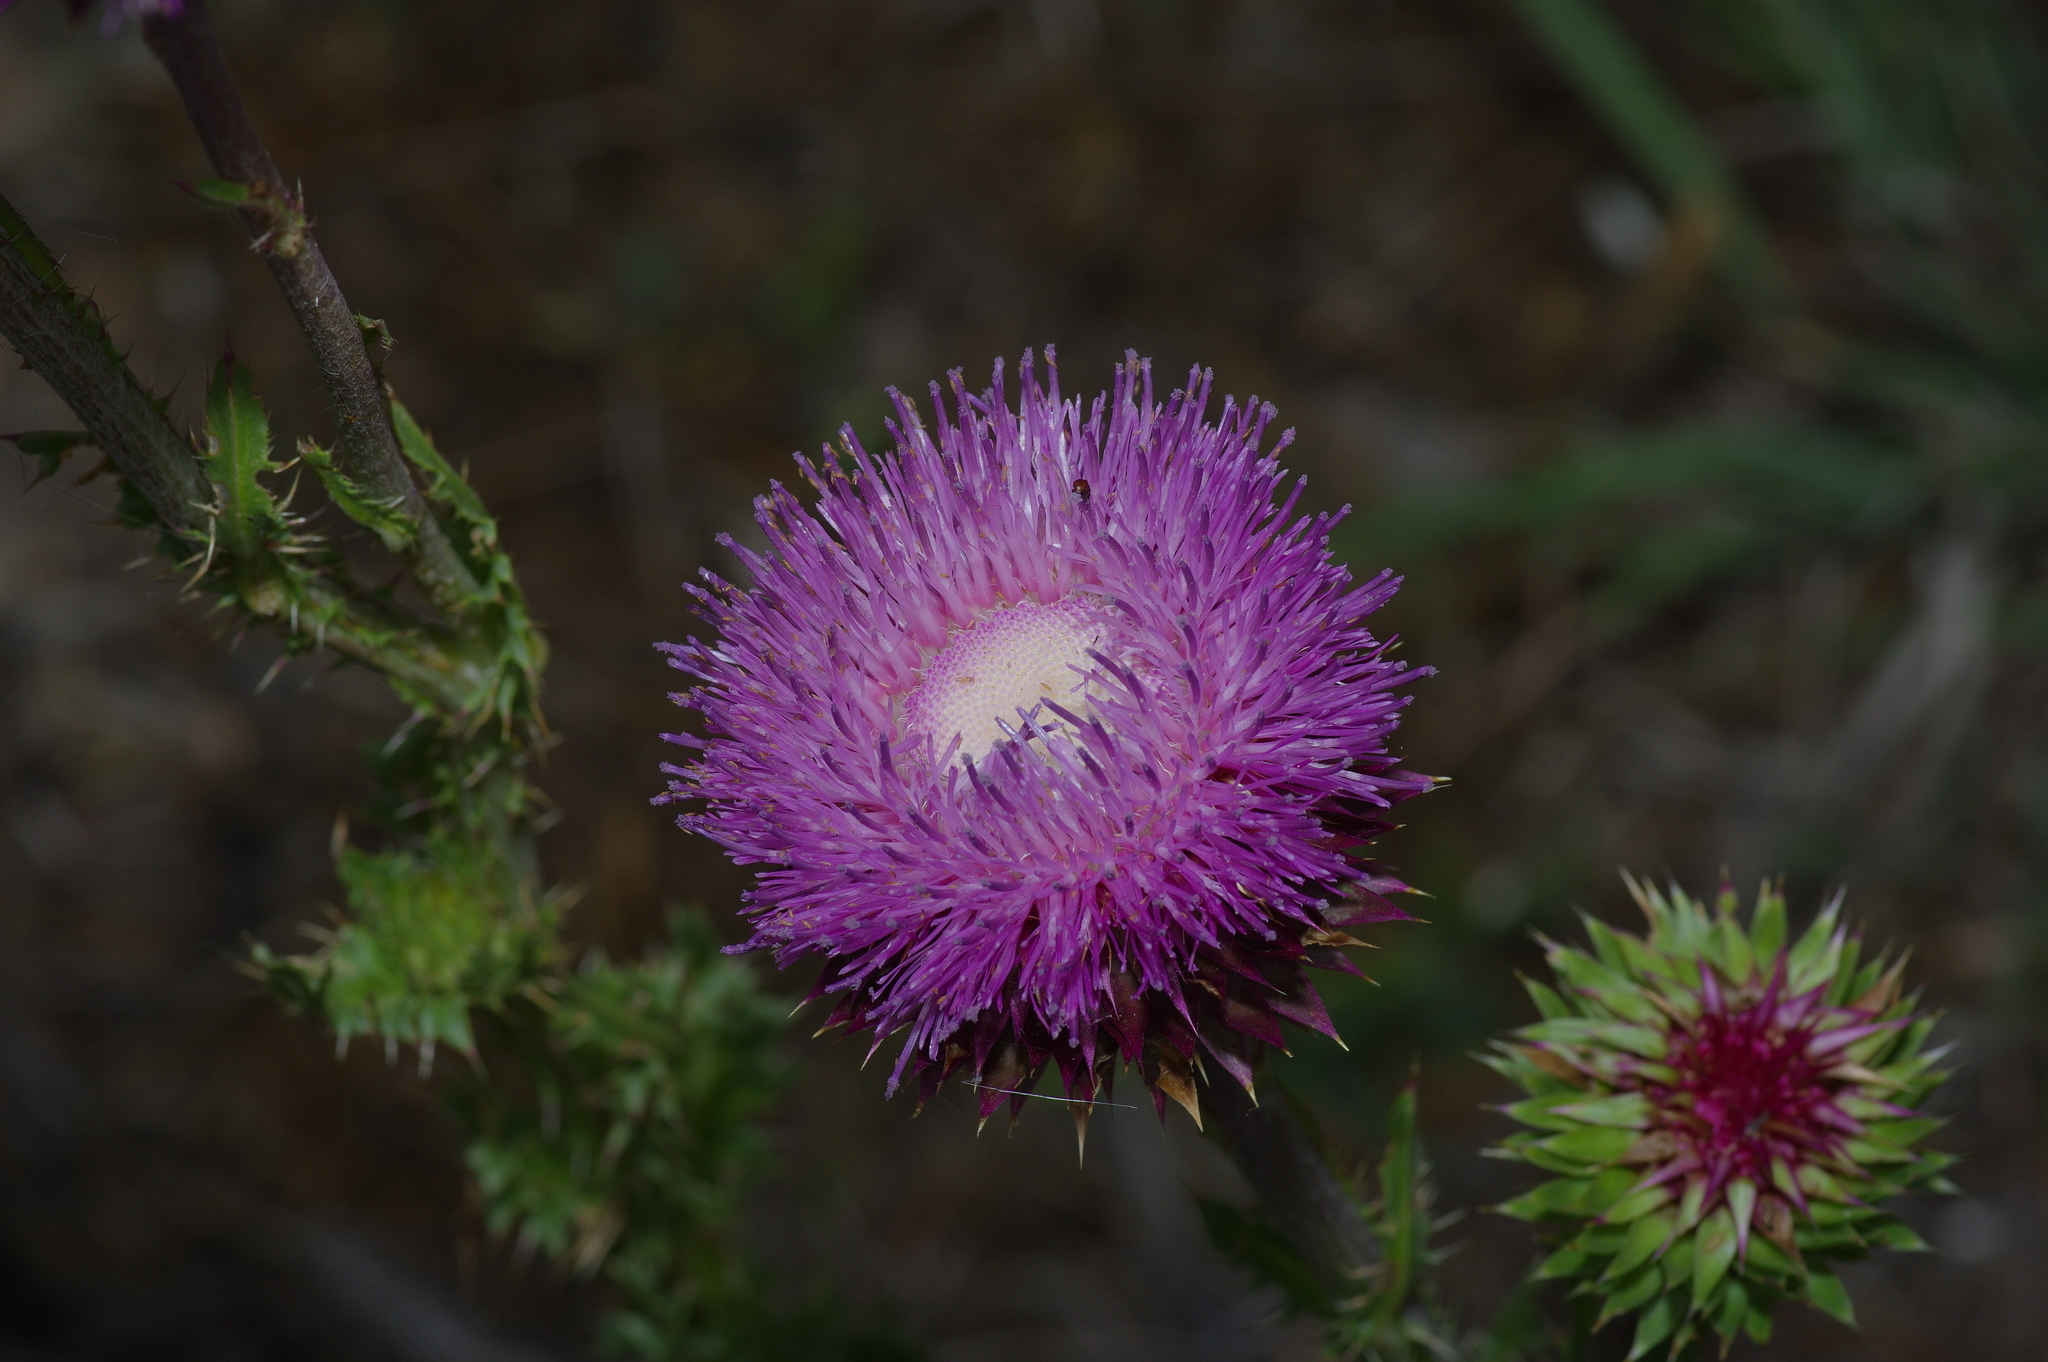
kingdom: Plantae
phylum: Tracheophyta
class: Magnoliopsida
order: Asterales
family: Asteraceae
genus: Carduus
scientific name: Carduus nutans
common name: Musk thistle
